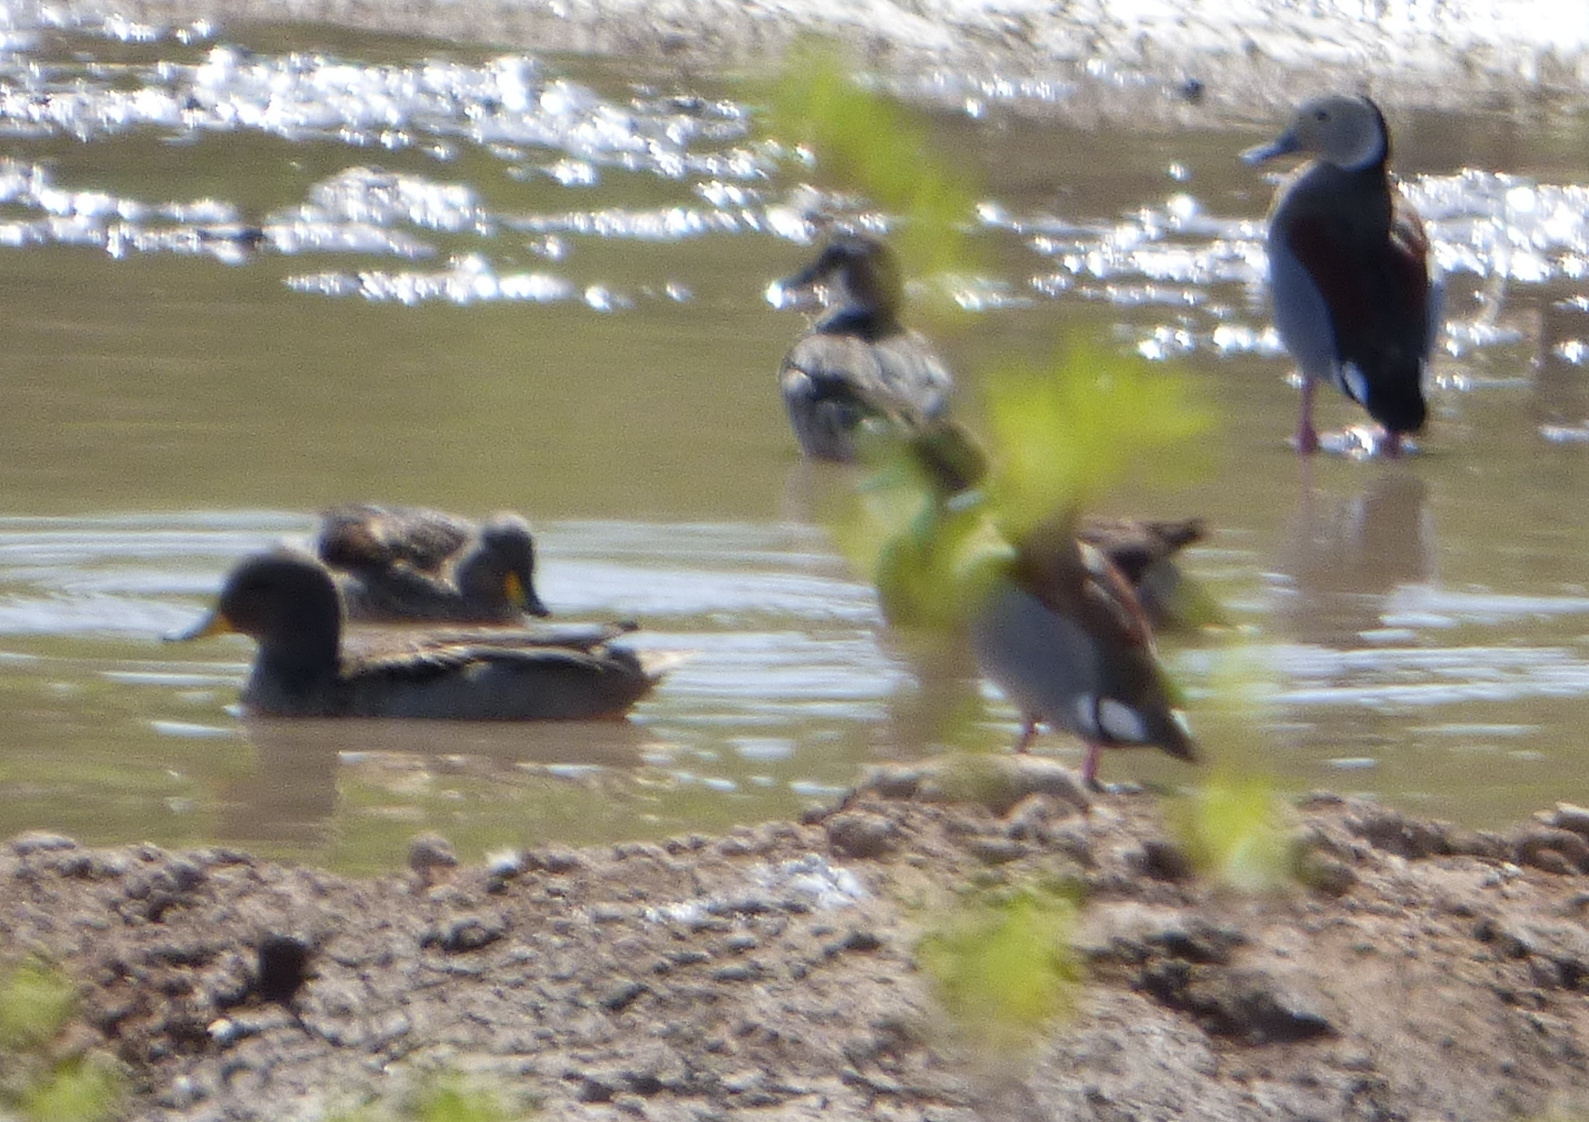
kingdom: Animalia
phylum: Chordata
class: Aves
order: Anseriformes
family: Anatidae
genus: Anas
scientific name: Anas flavirostris
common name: Yellow-billed teal
